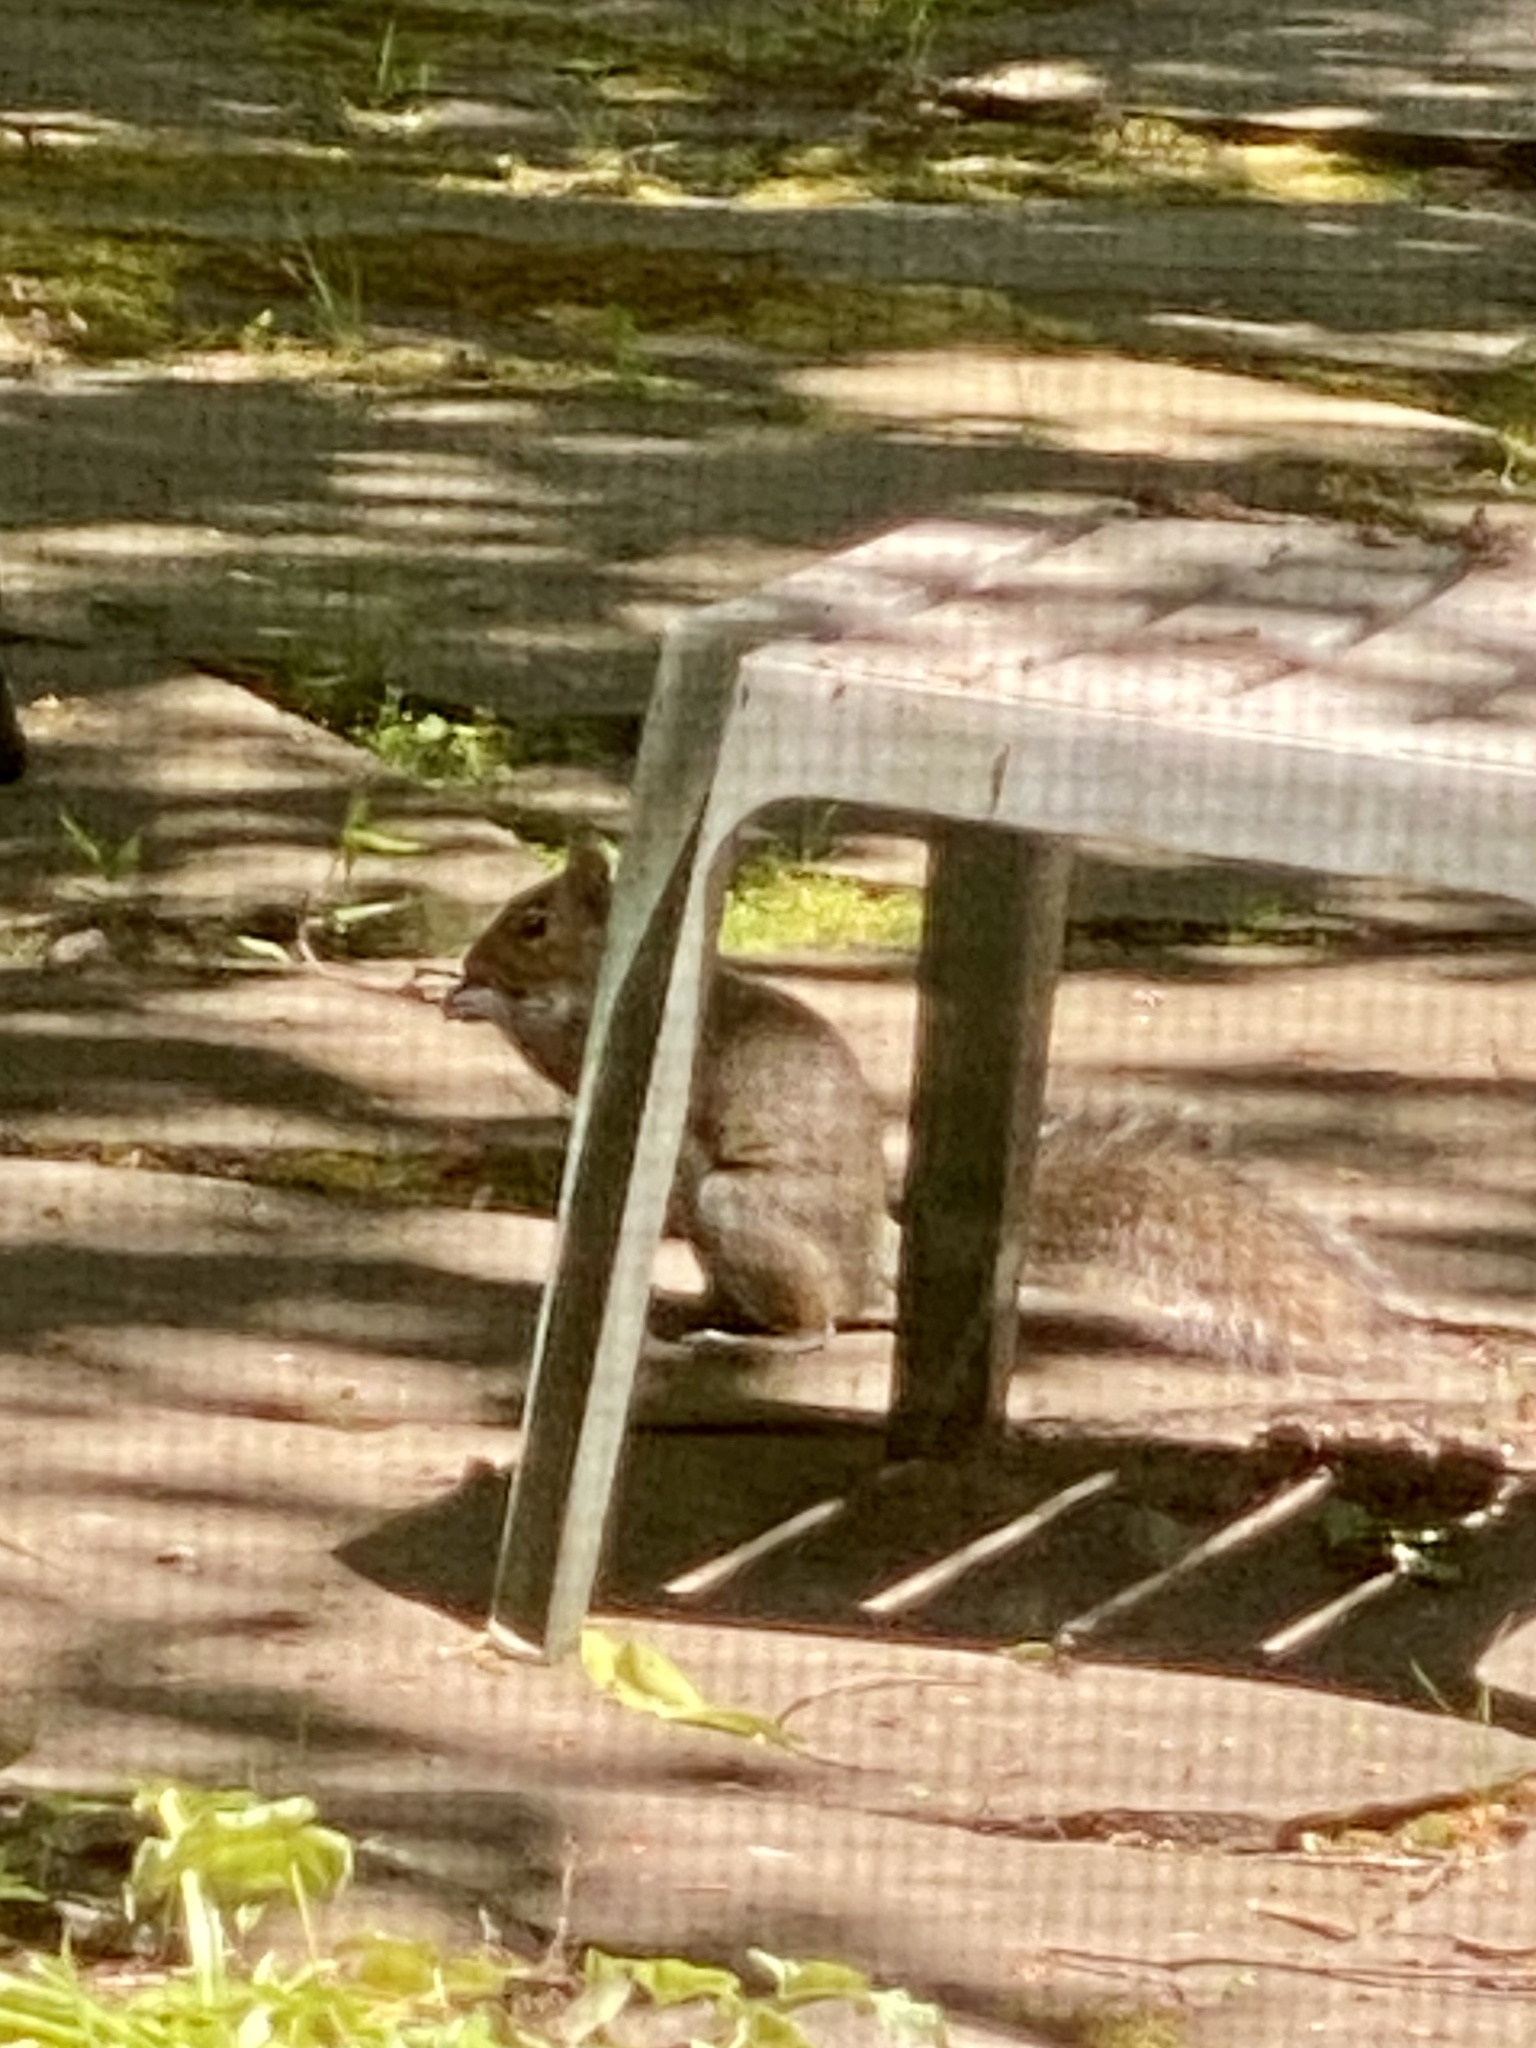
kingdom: Animalia
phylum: Chordata
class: Mammalia
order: Rodentia
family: Sciuridae
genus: Sciurus
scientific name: Sciurus carolinensis
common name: Eastern gray squirrel
